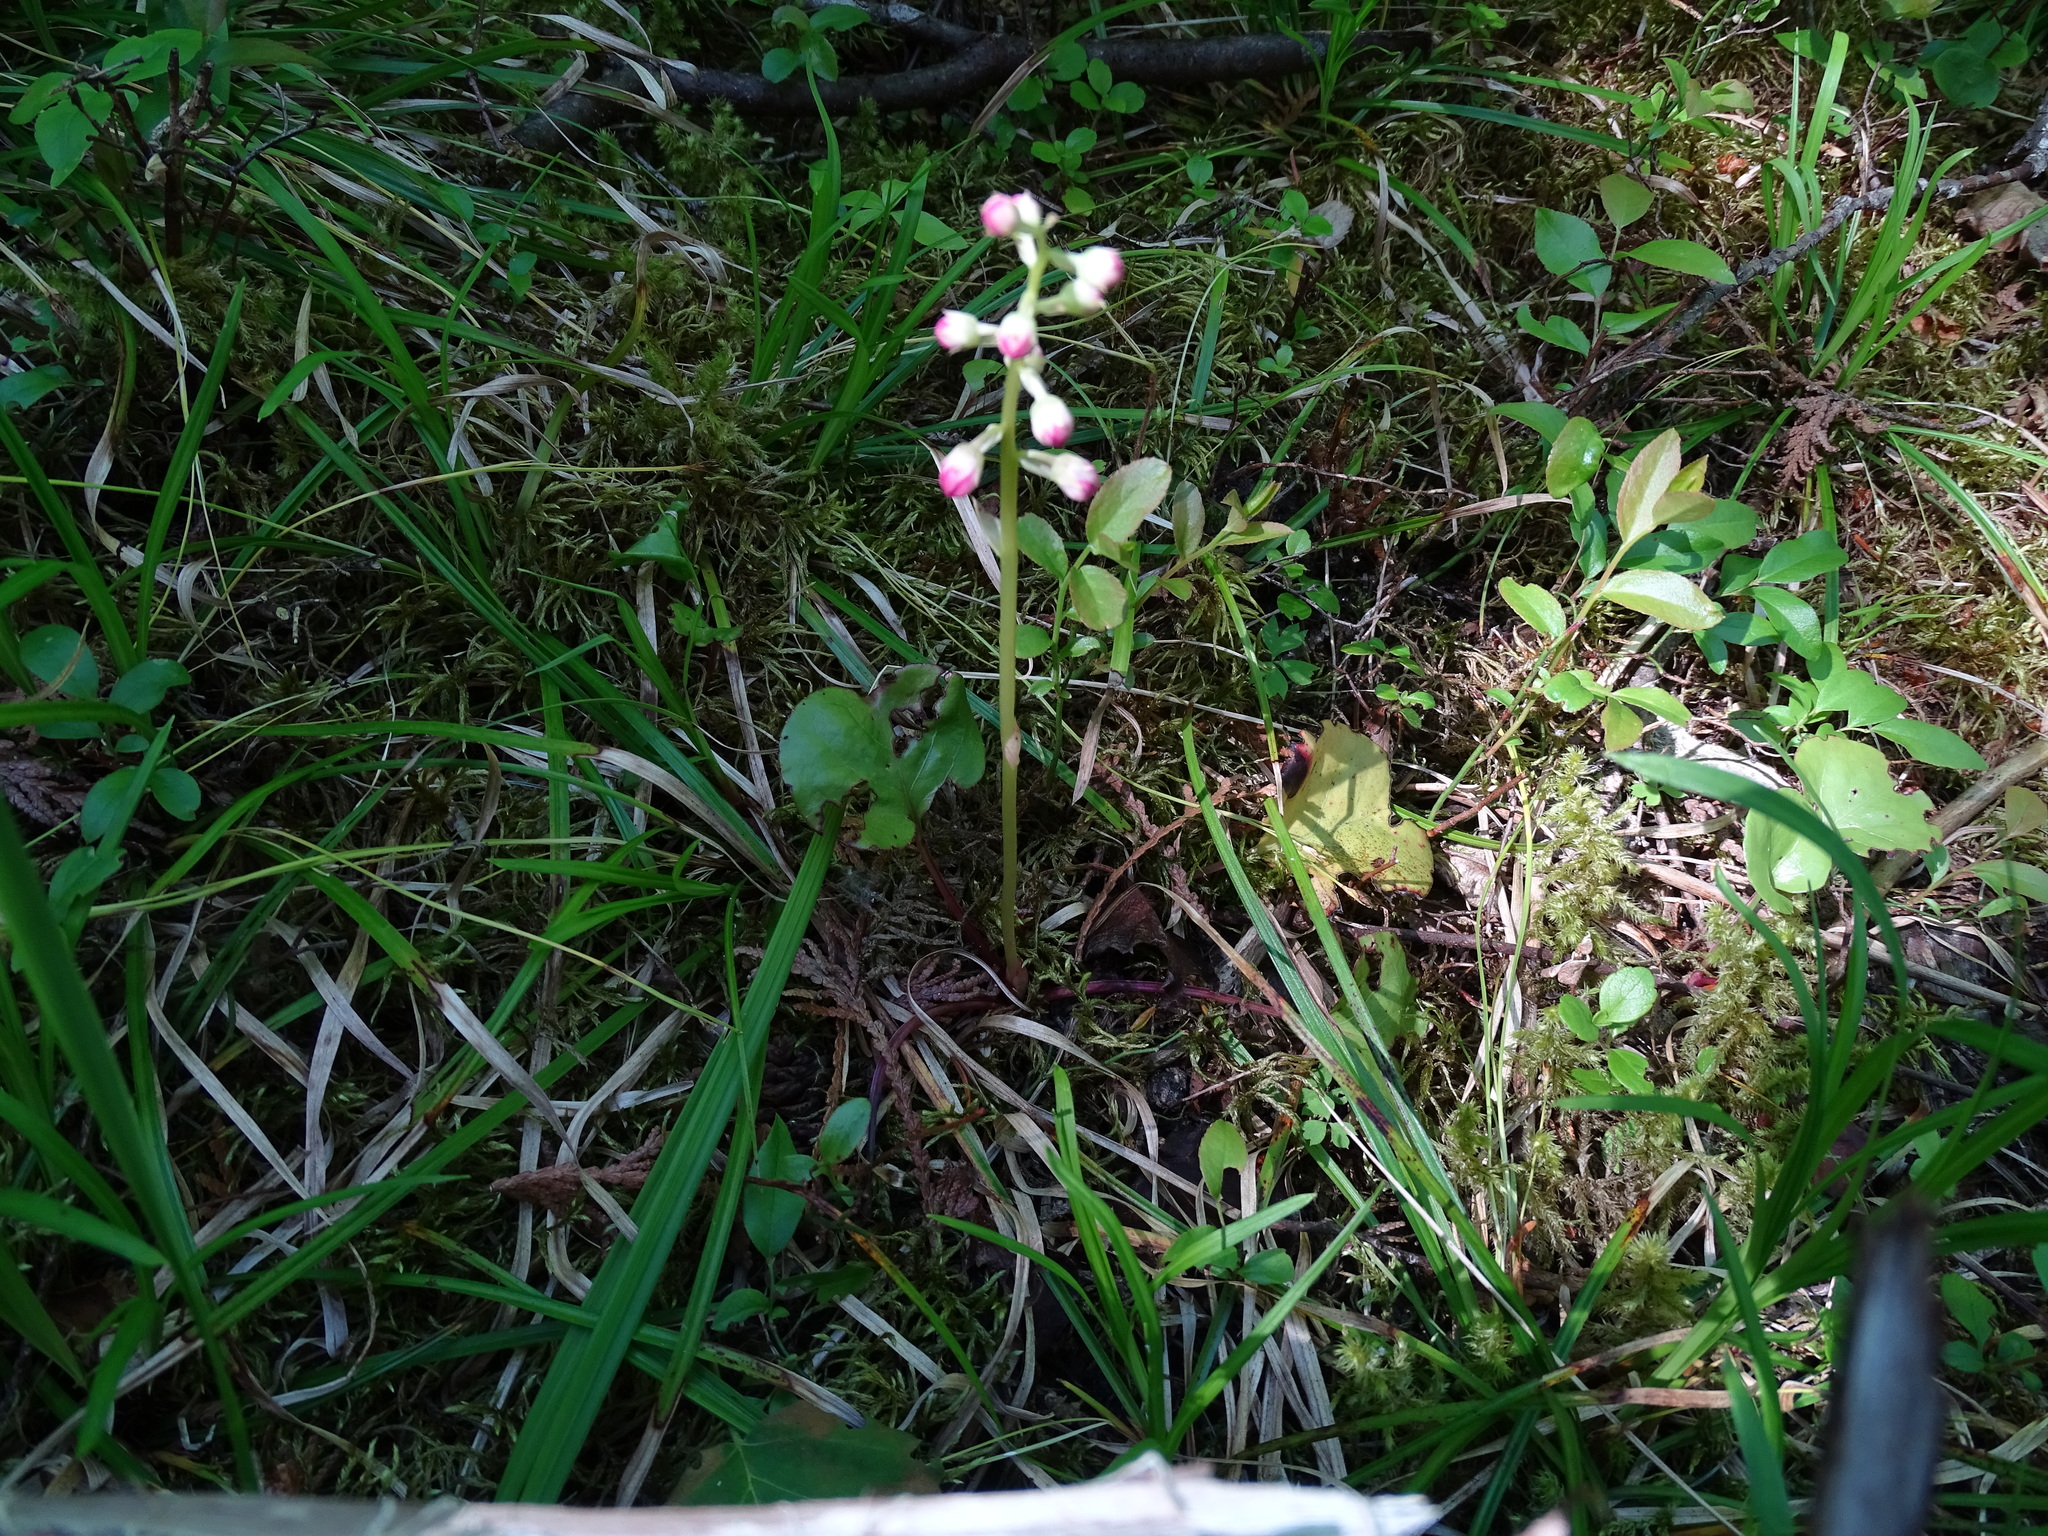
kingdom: Plantae
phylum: Tracheophyta
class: Magnoliopsida
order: Ericales
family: Ericaceae
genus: Pyrola
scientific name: Pyrola asarifolia
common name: Bog wintergreen
